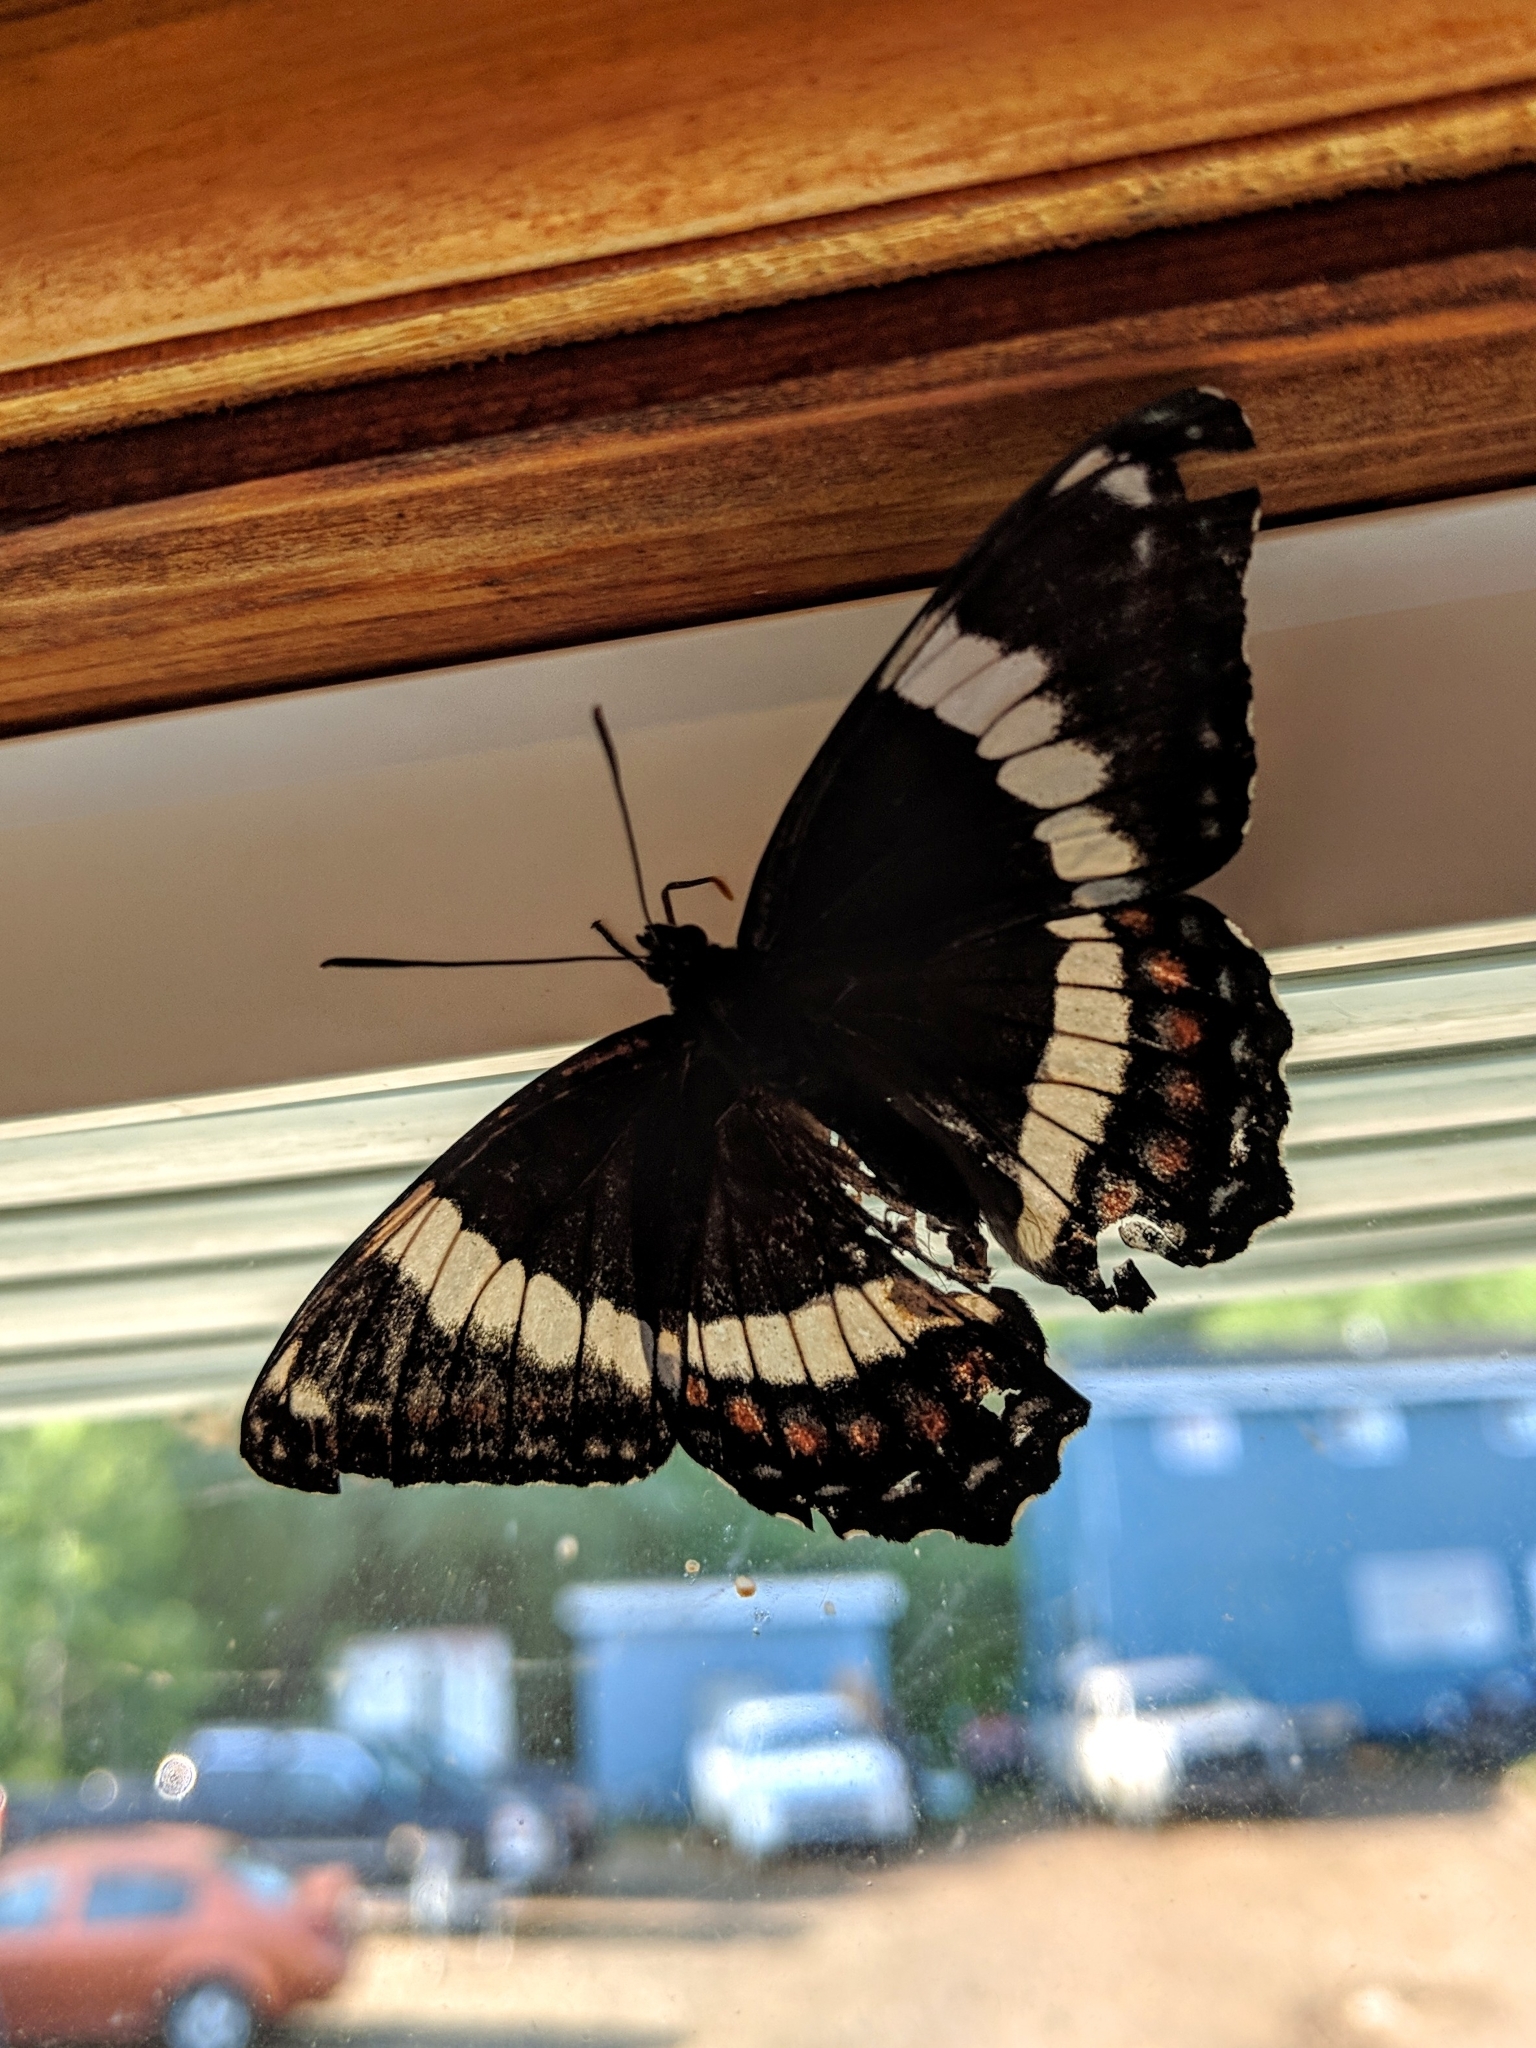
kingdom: Animalia
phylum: Arthropoda
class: Insecta
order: Lepidoptera
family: Nymphalidae
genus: Limenitis
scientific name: Limenitis arthemis
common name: Red-spotted admiral
